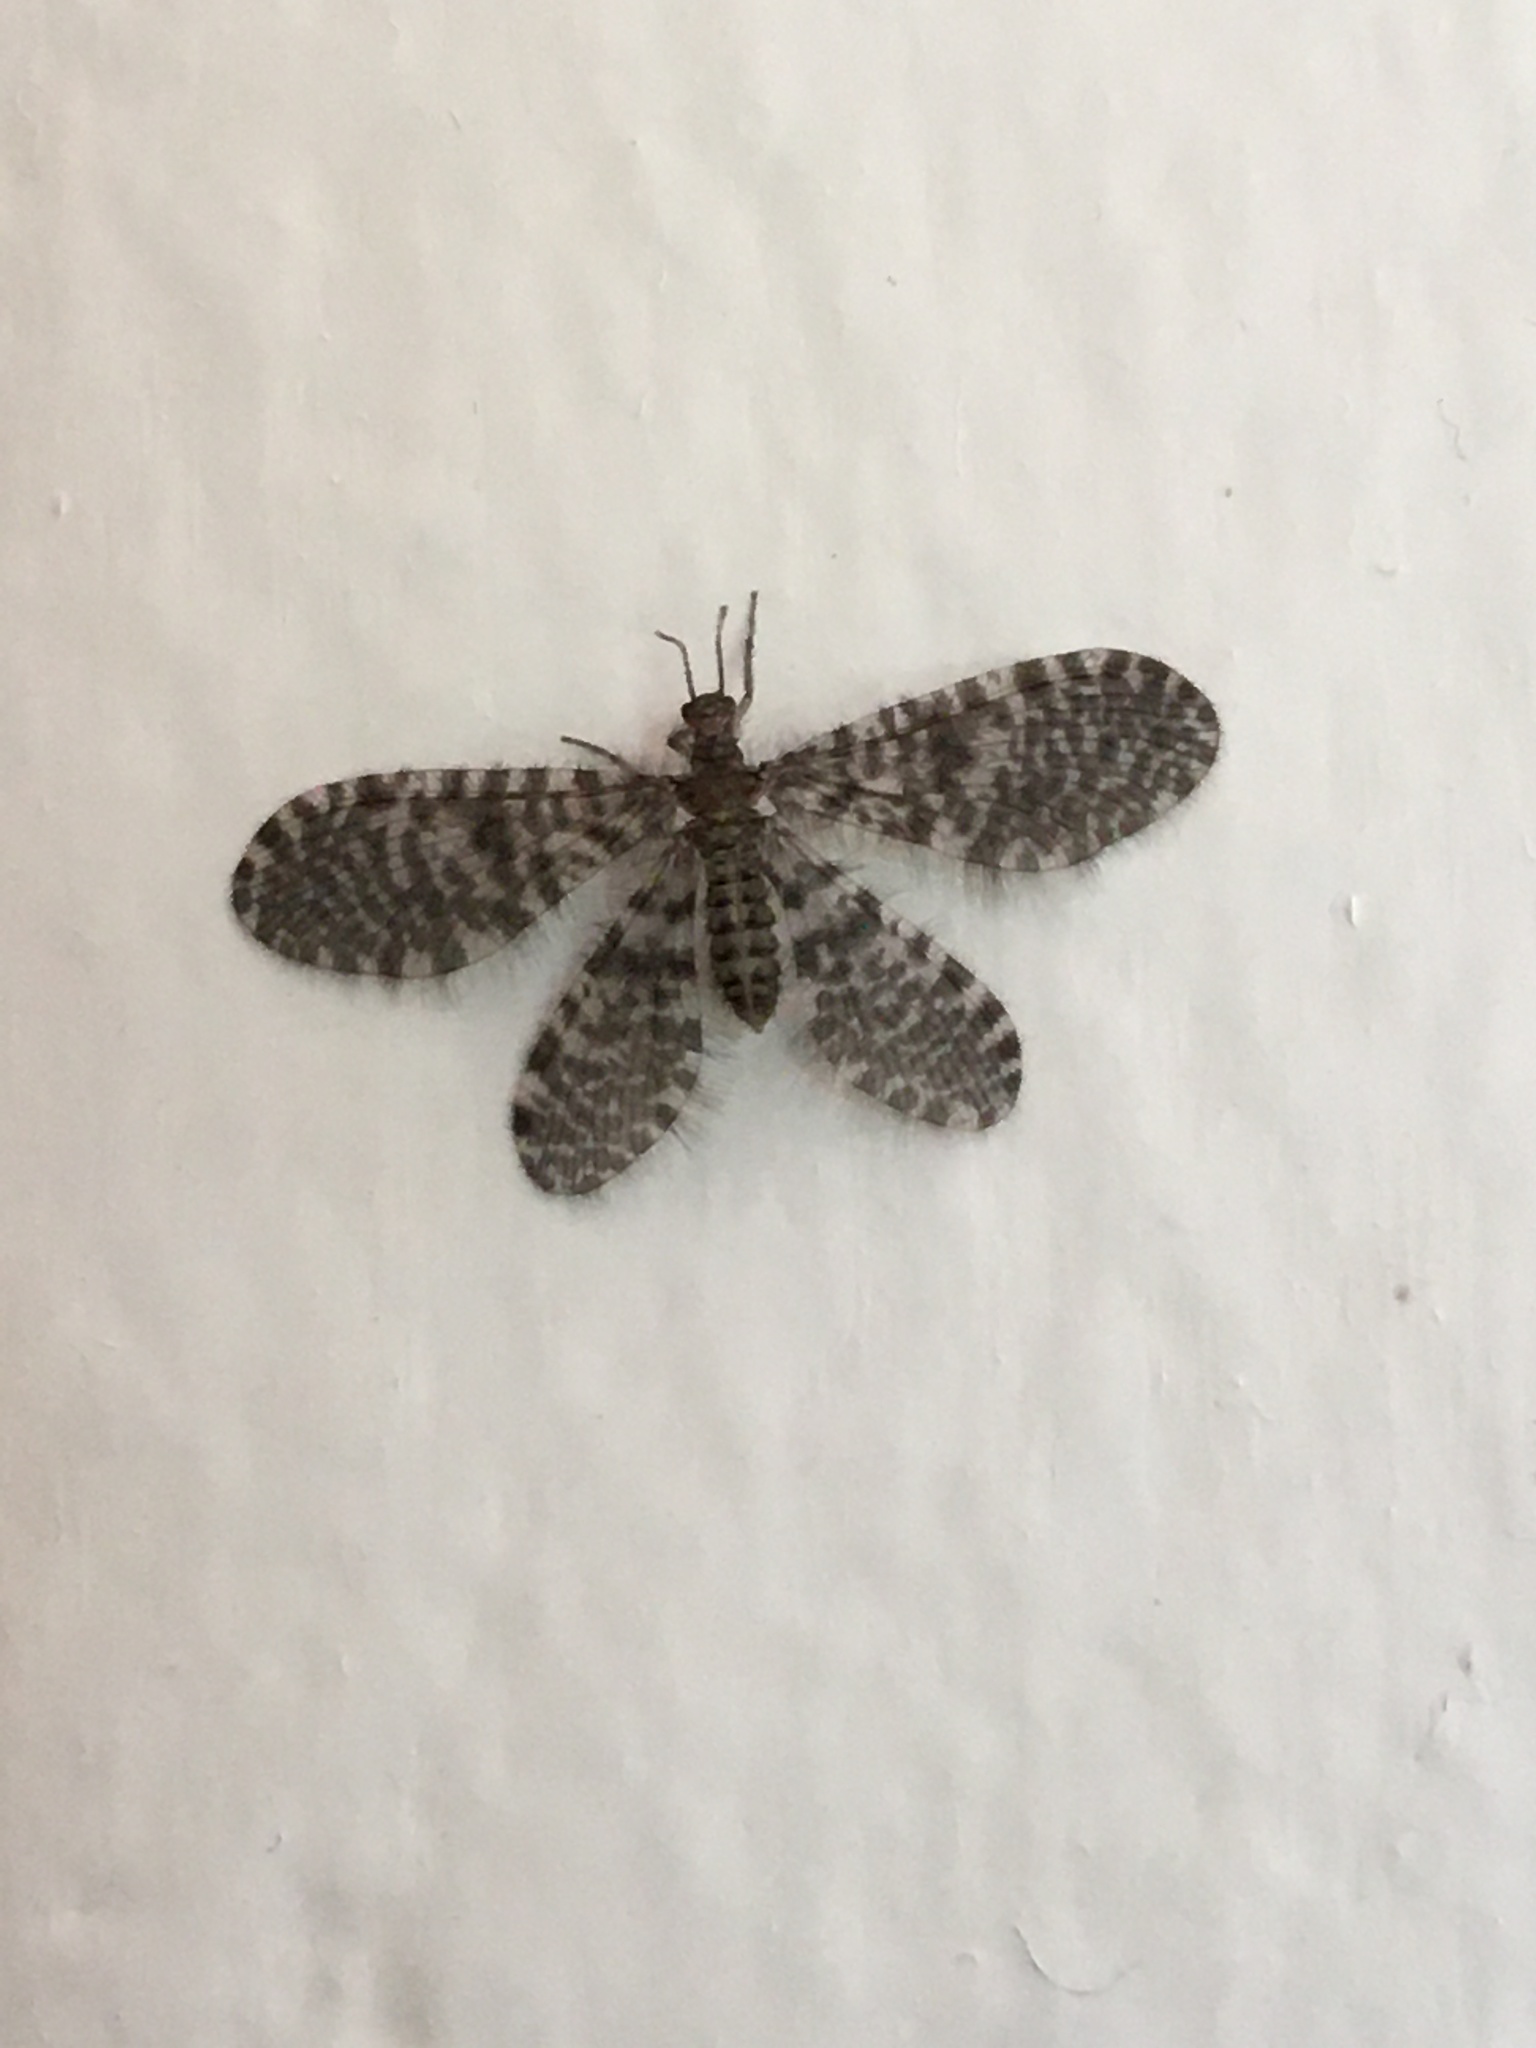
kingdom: Animalia
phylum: Arthropoda
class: Insecta
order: Neuroptera
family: Dilaridae
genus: Nallachius
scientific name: Nallachius americanus
